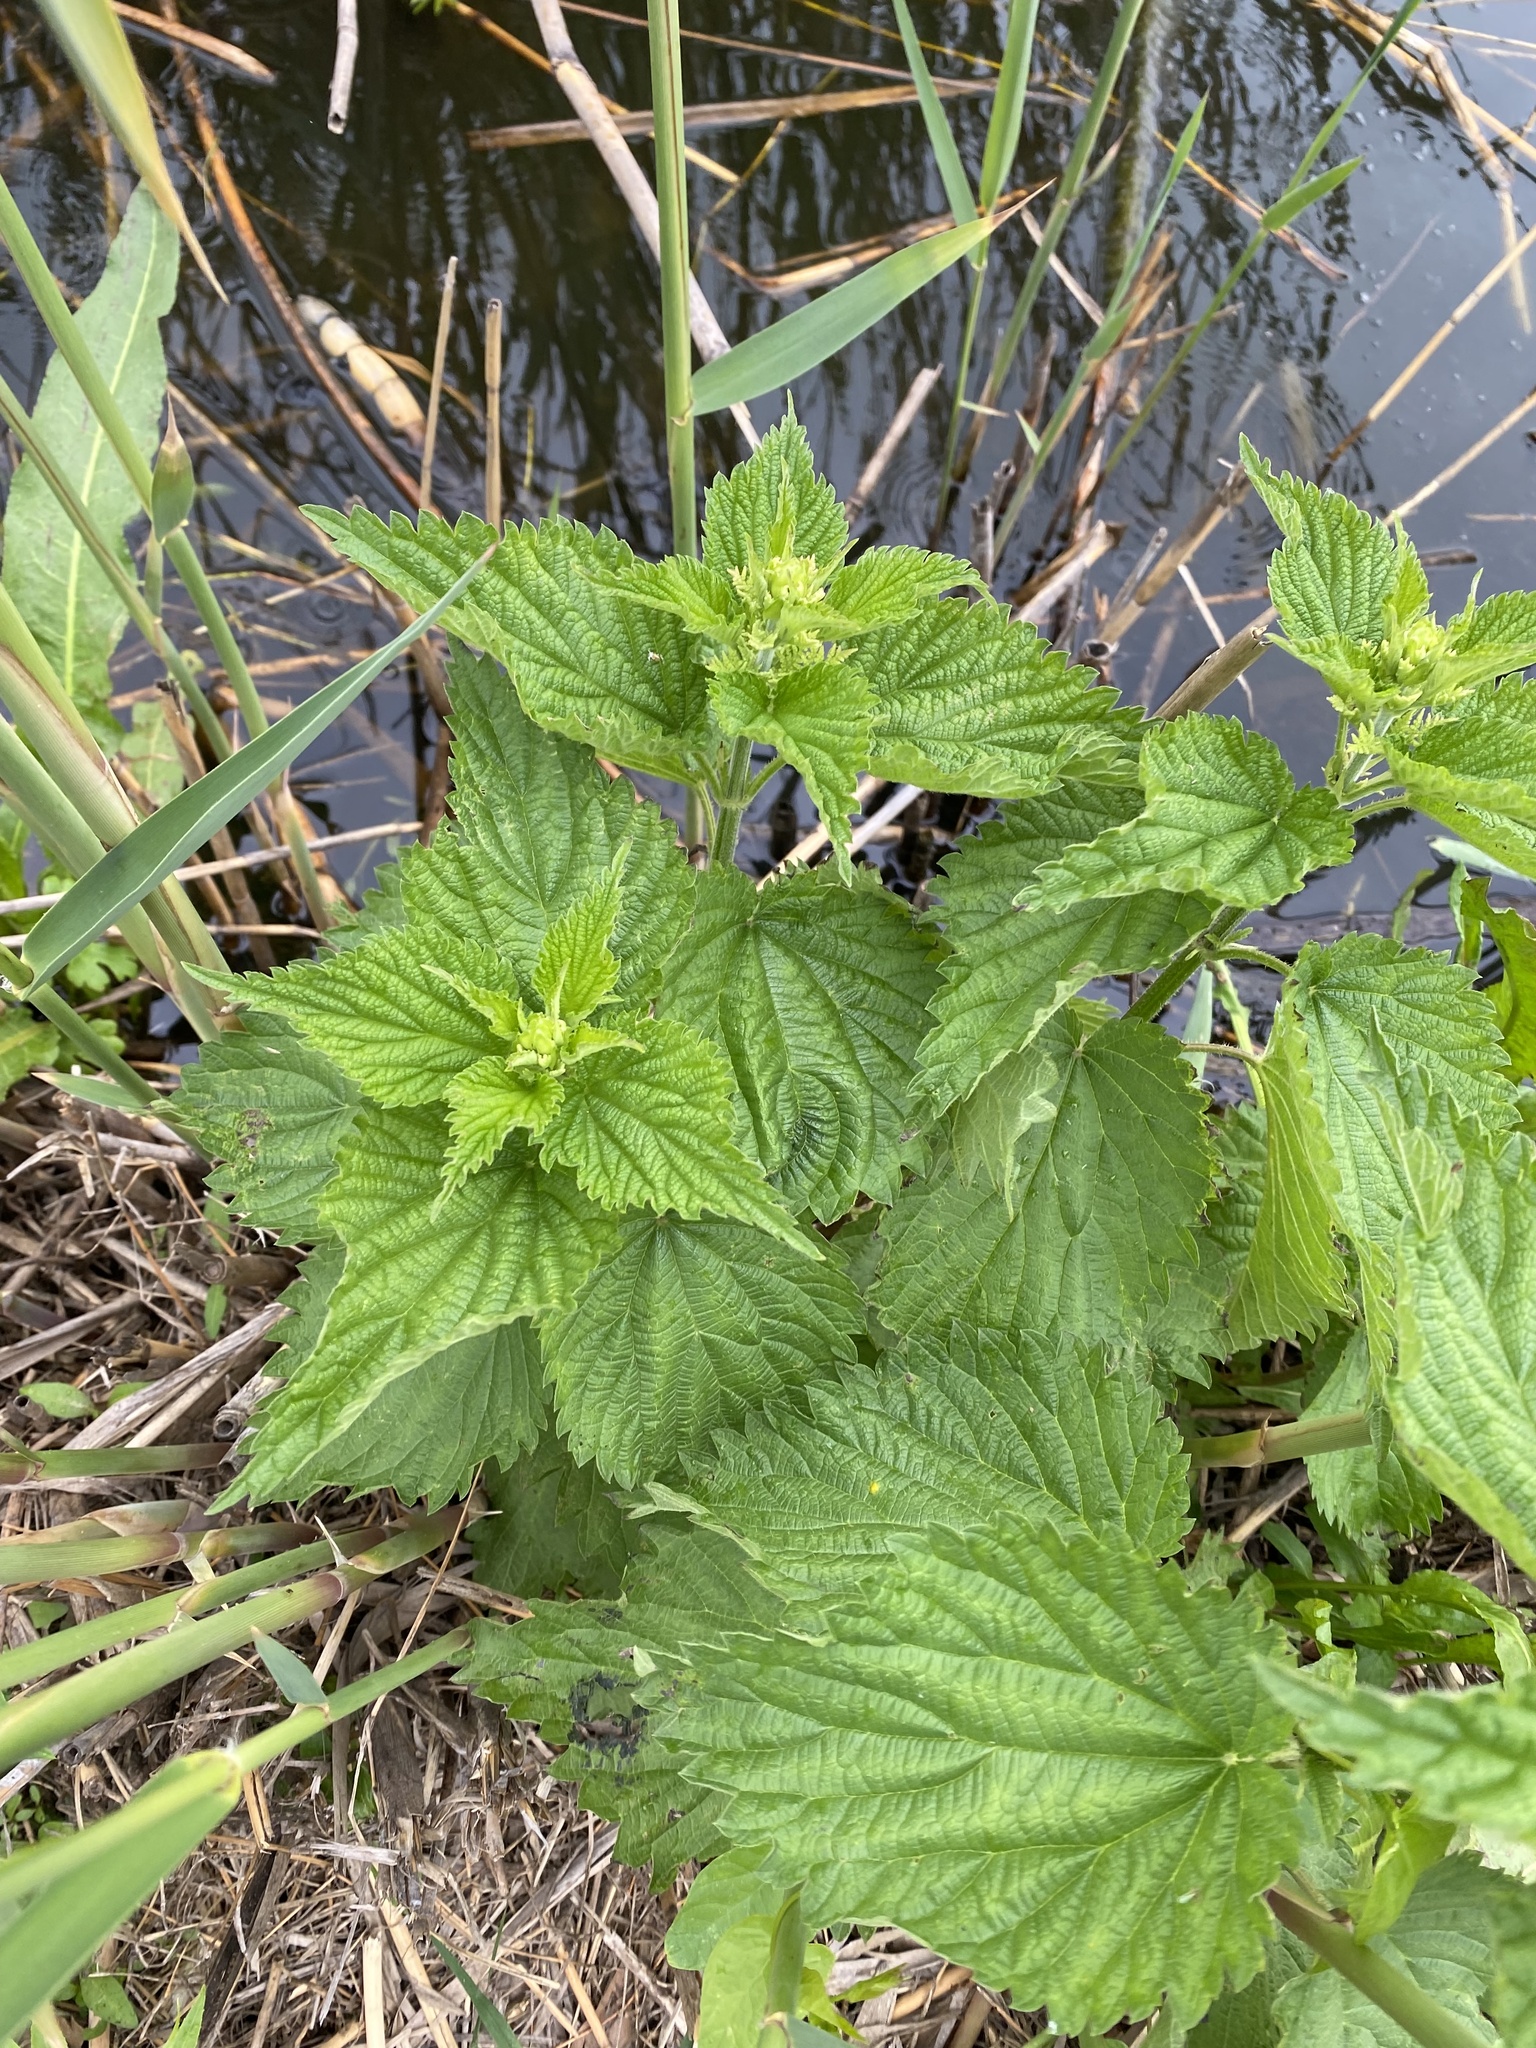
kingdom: Plantae
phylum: Tracheophyta
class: Magnoliopsida
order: Rosales
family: Urticaceae
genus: Urtica
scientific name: Urtica dioica
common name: Common nettle
